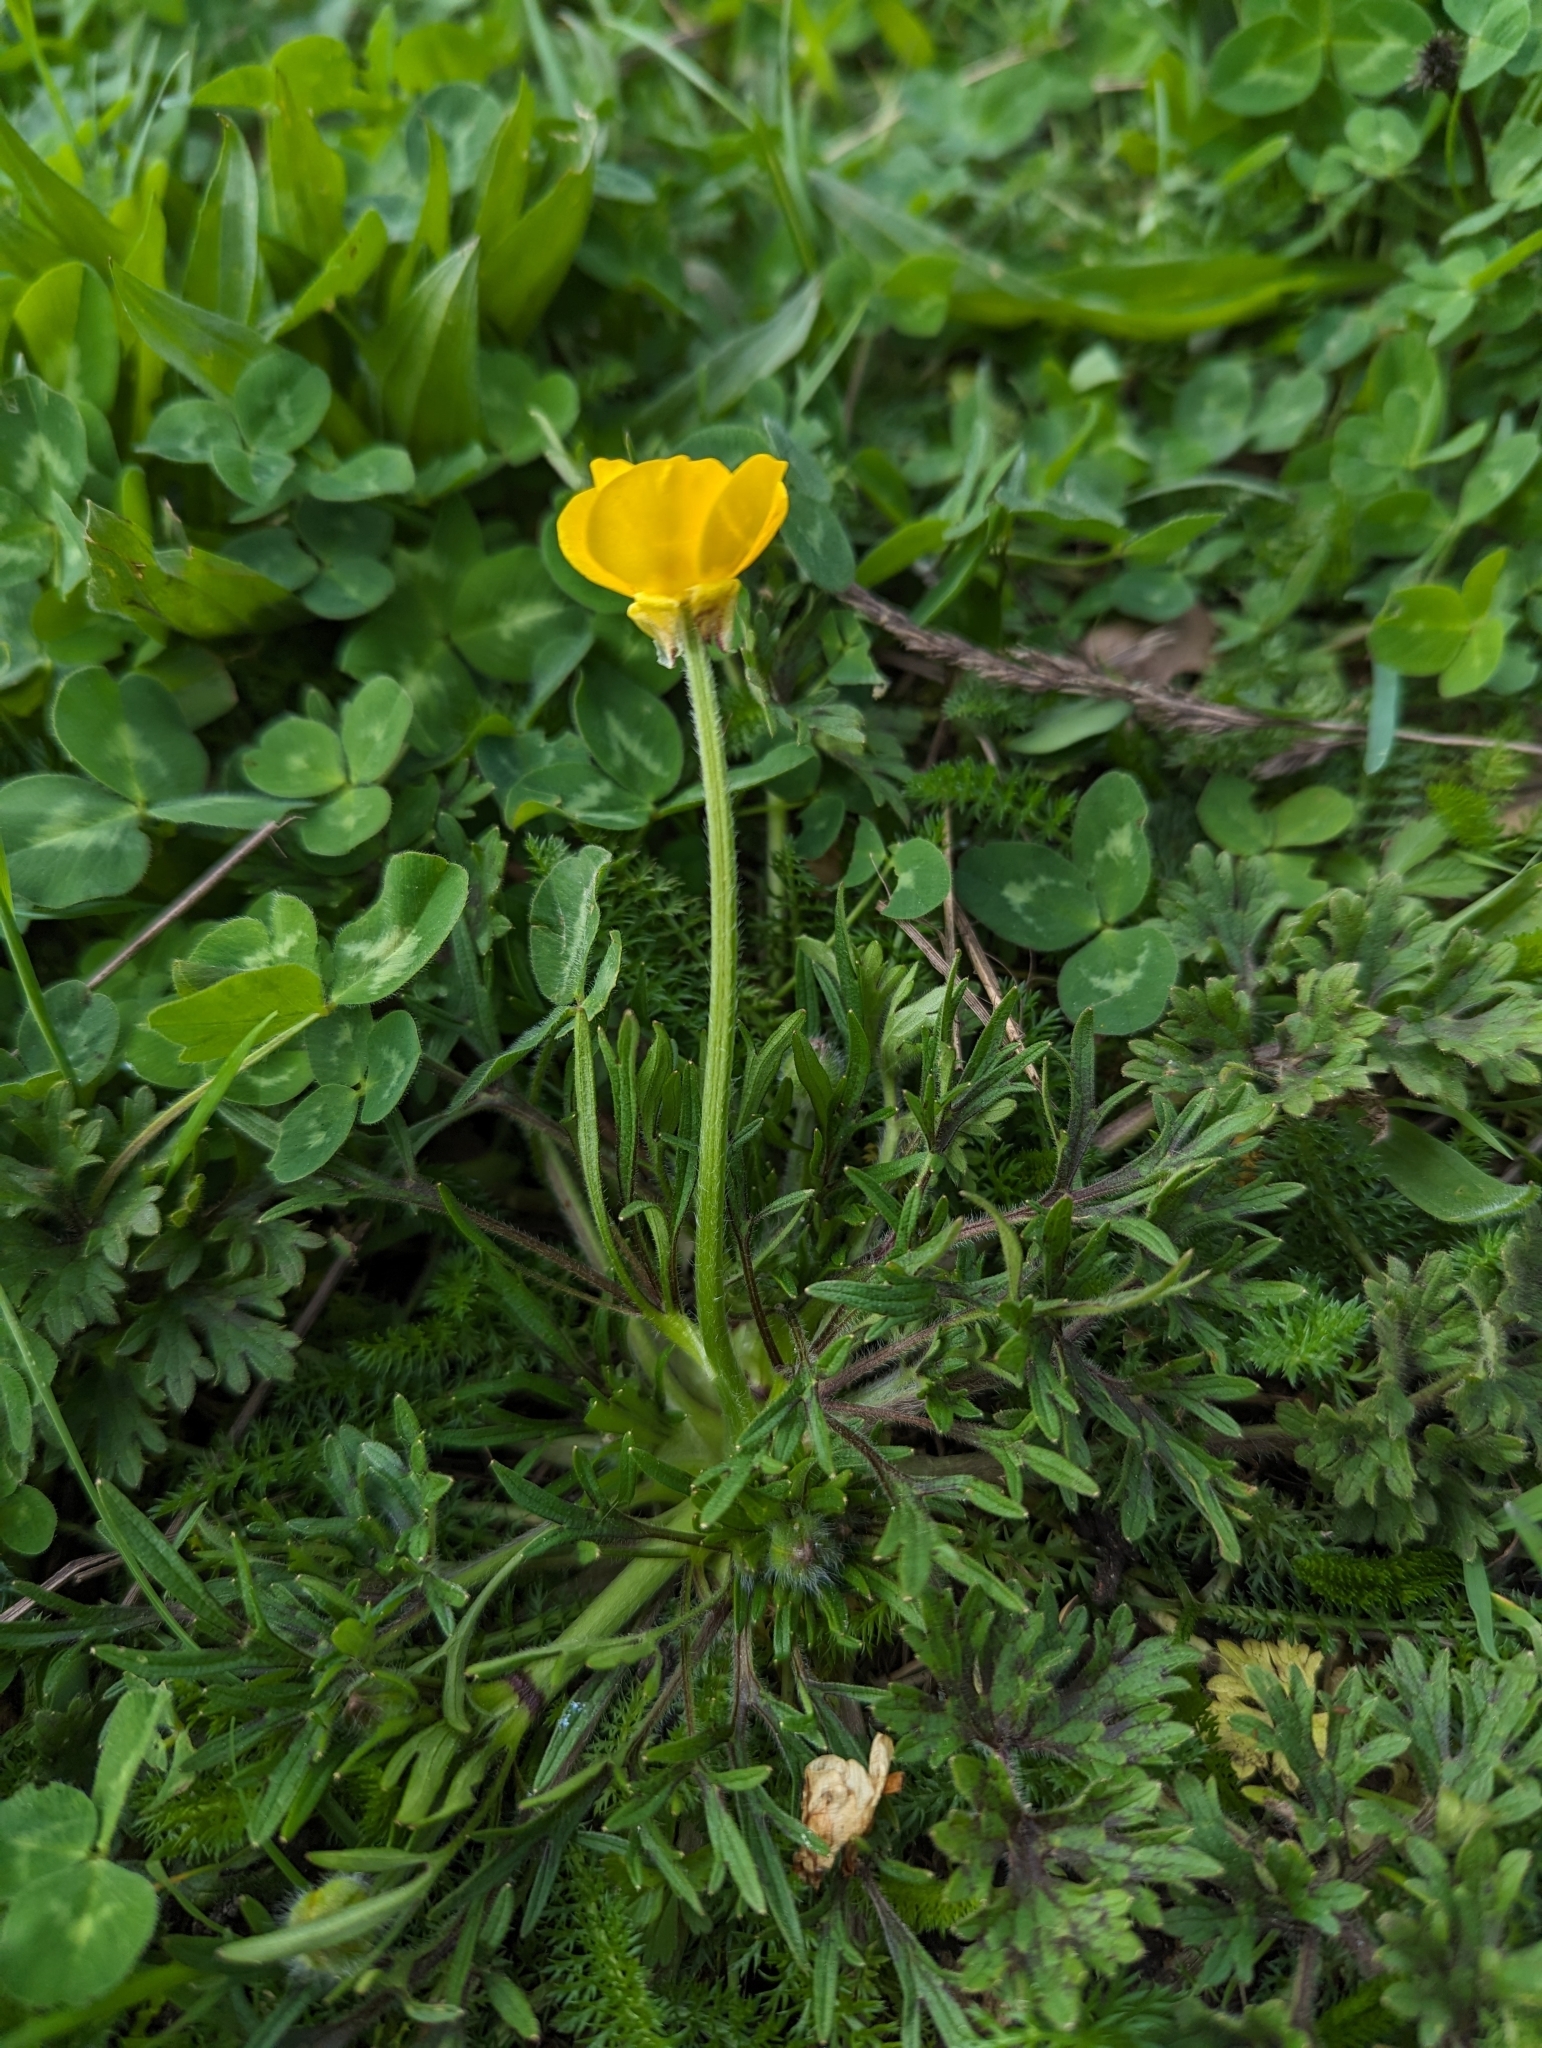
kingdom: Plantae
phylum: Tracheophyta
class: Magnoliopsida
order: Ranunculales
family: Ranunculaceae
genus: Ranunculus
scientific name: Ranunculus bulbosus
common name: Bulbous buttercup
